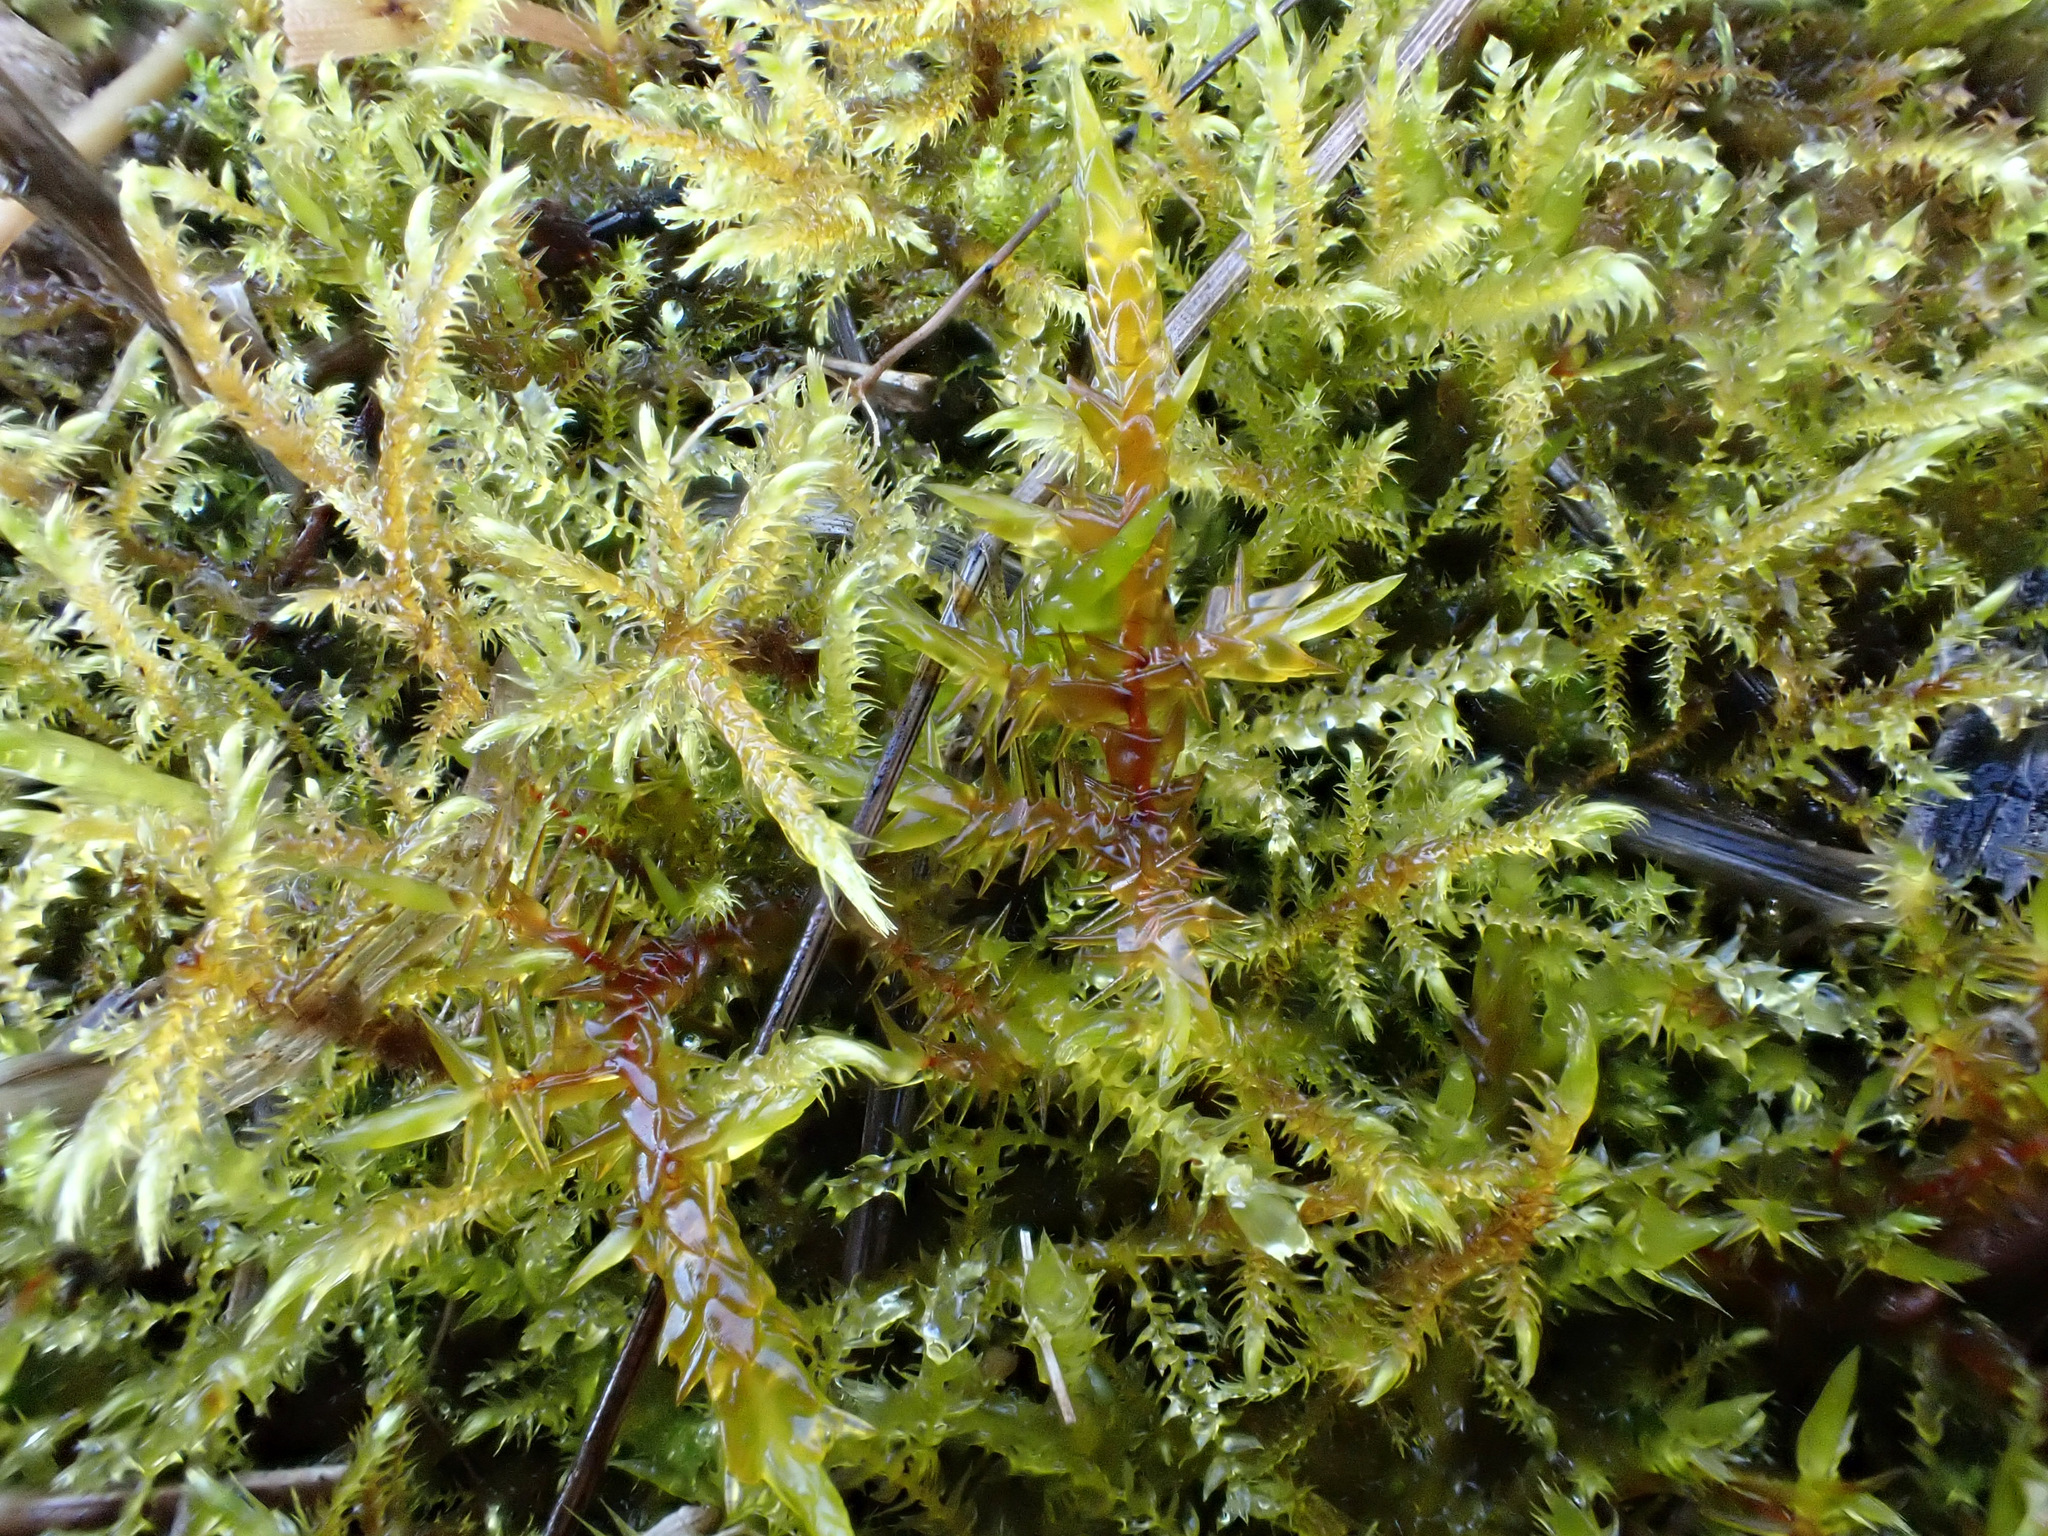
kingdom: Plantae
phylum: Bryophyta
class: Bryopsida
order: Hypnales
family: Pylaisiaceae
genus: Calliergonella
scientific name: Calliergonella cuspidata
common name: Common large wetland moss
